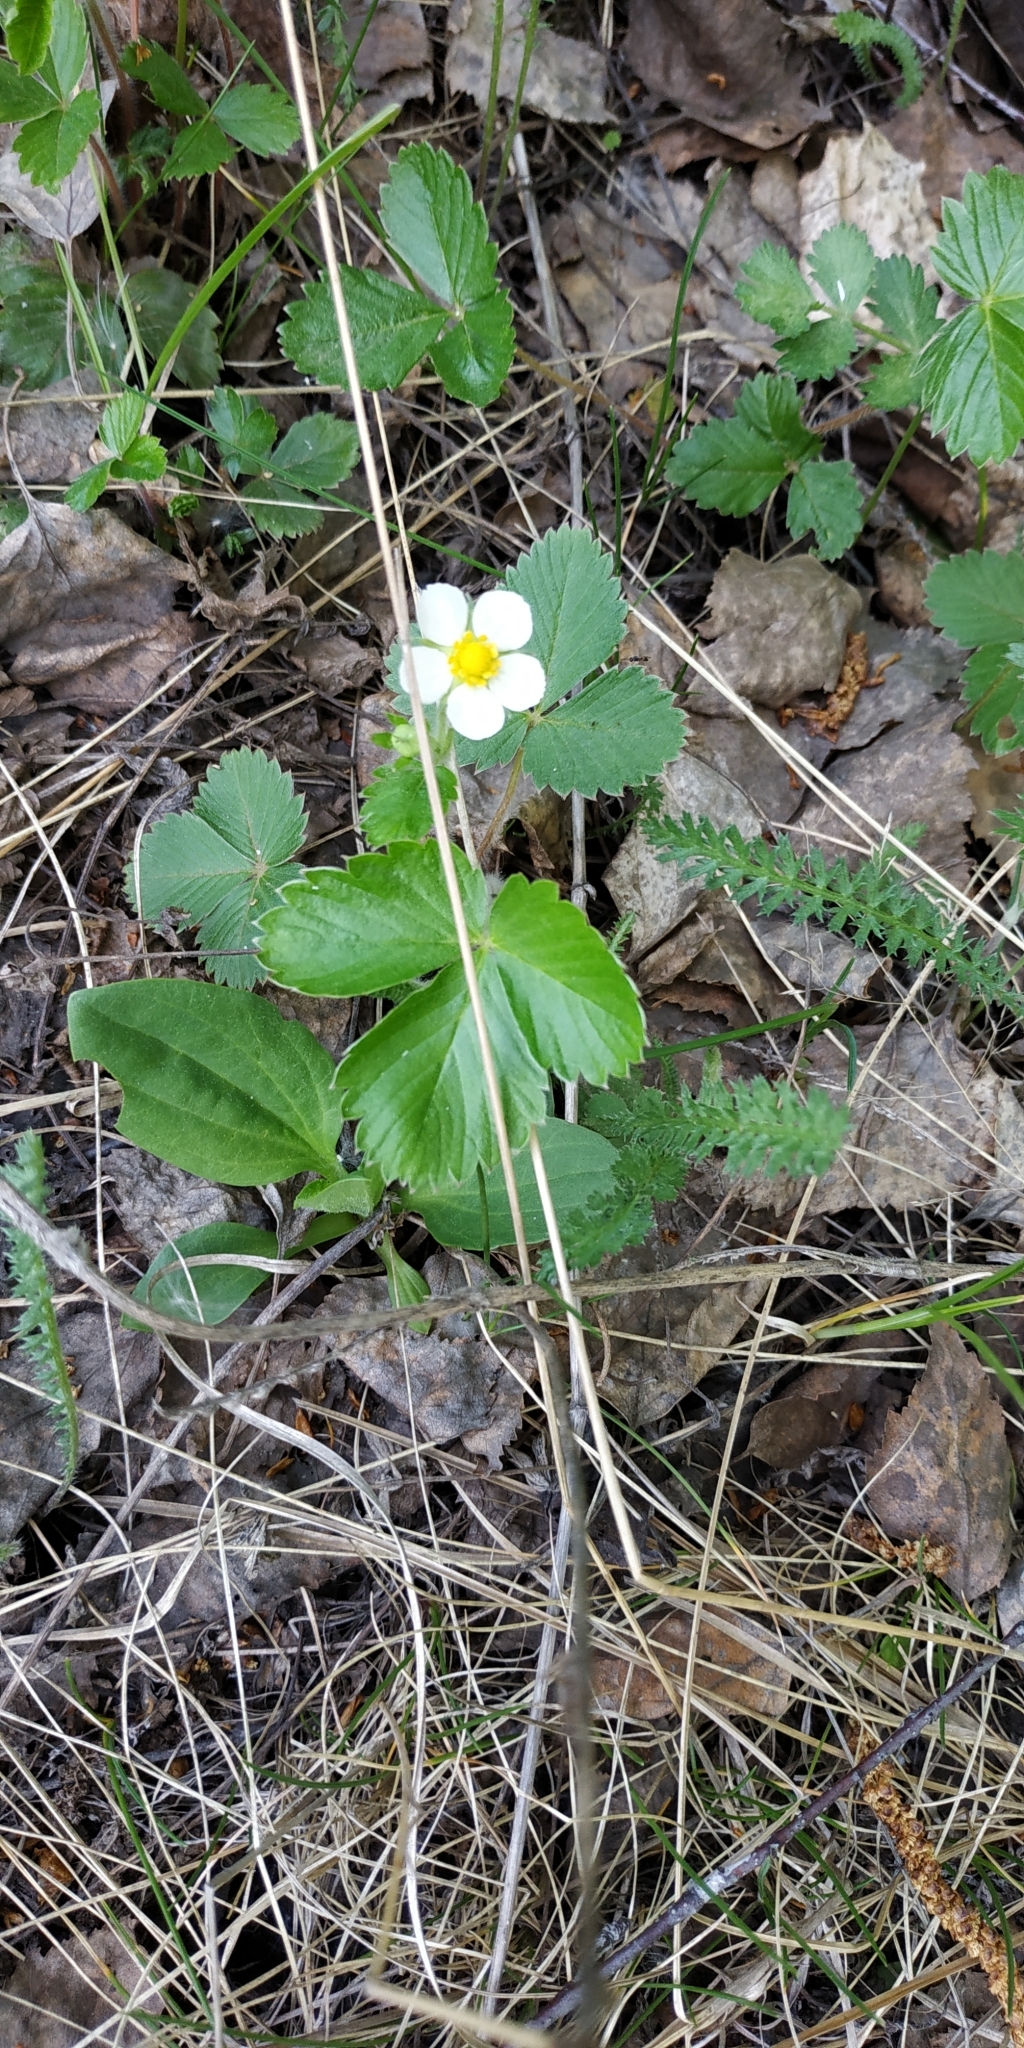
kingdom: Plantae
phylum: Tracheophyta
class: Magnoliopsida
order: Rosales
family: Rosaceae
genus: Fragaria
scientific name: Fragaria vesca
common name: Wild strawberry
